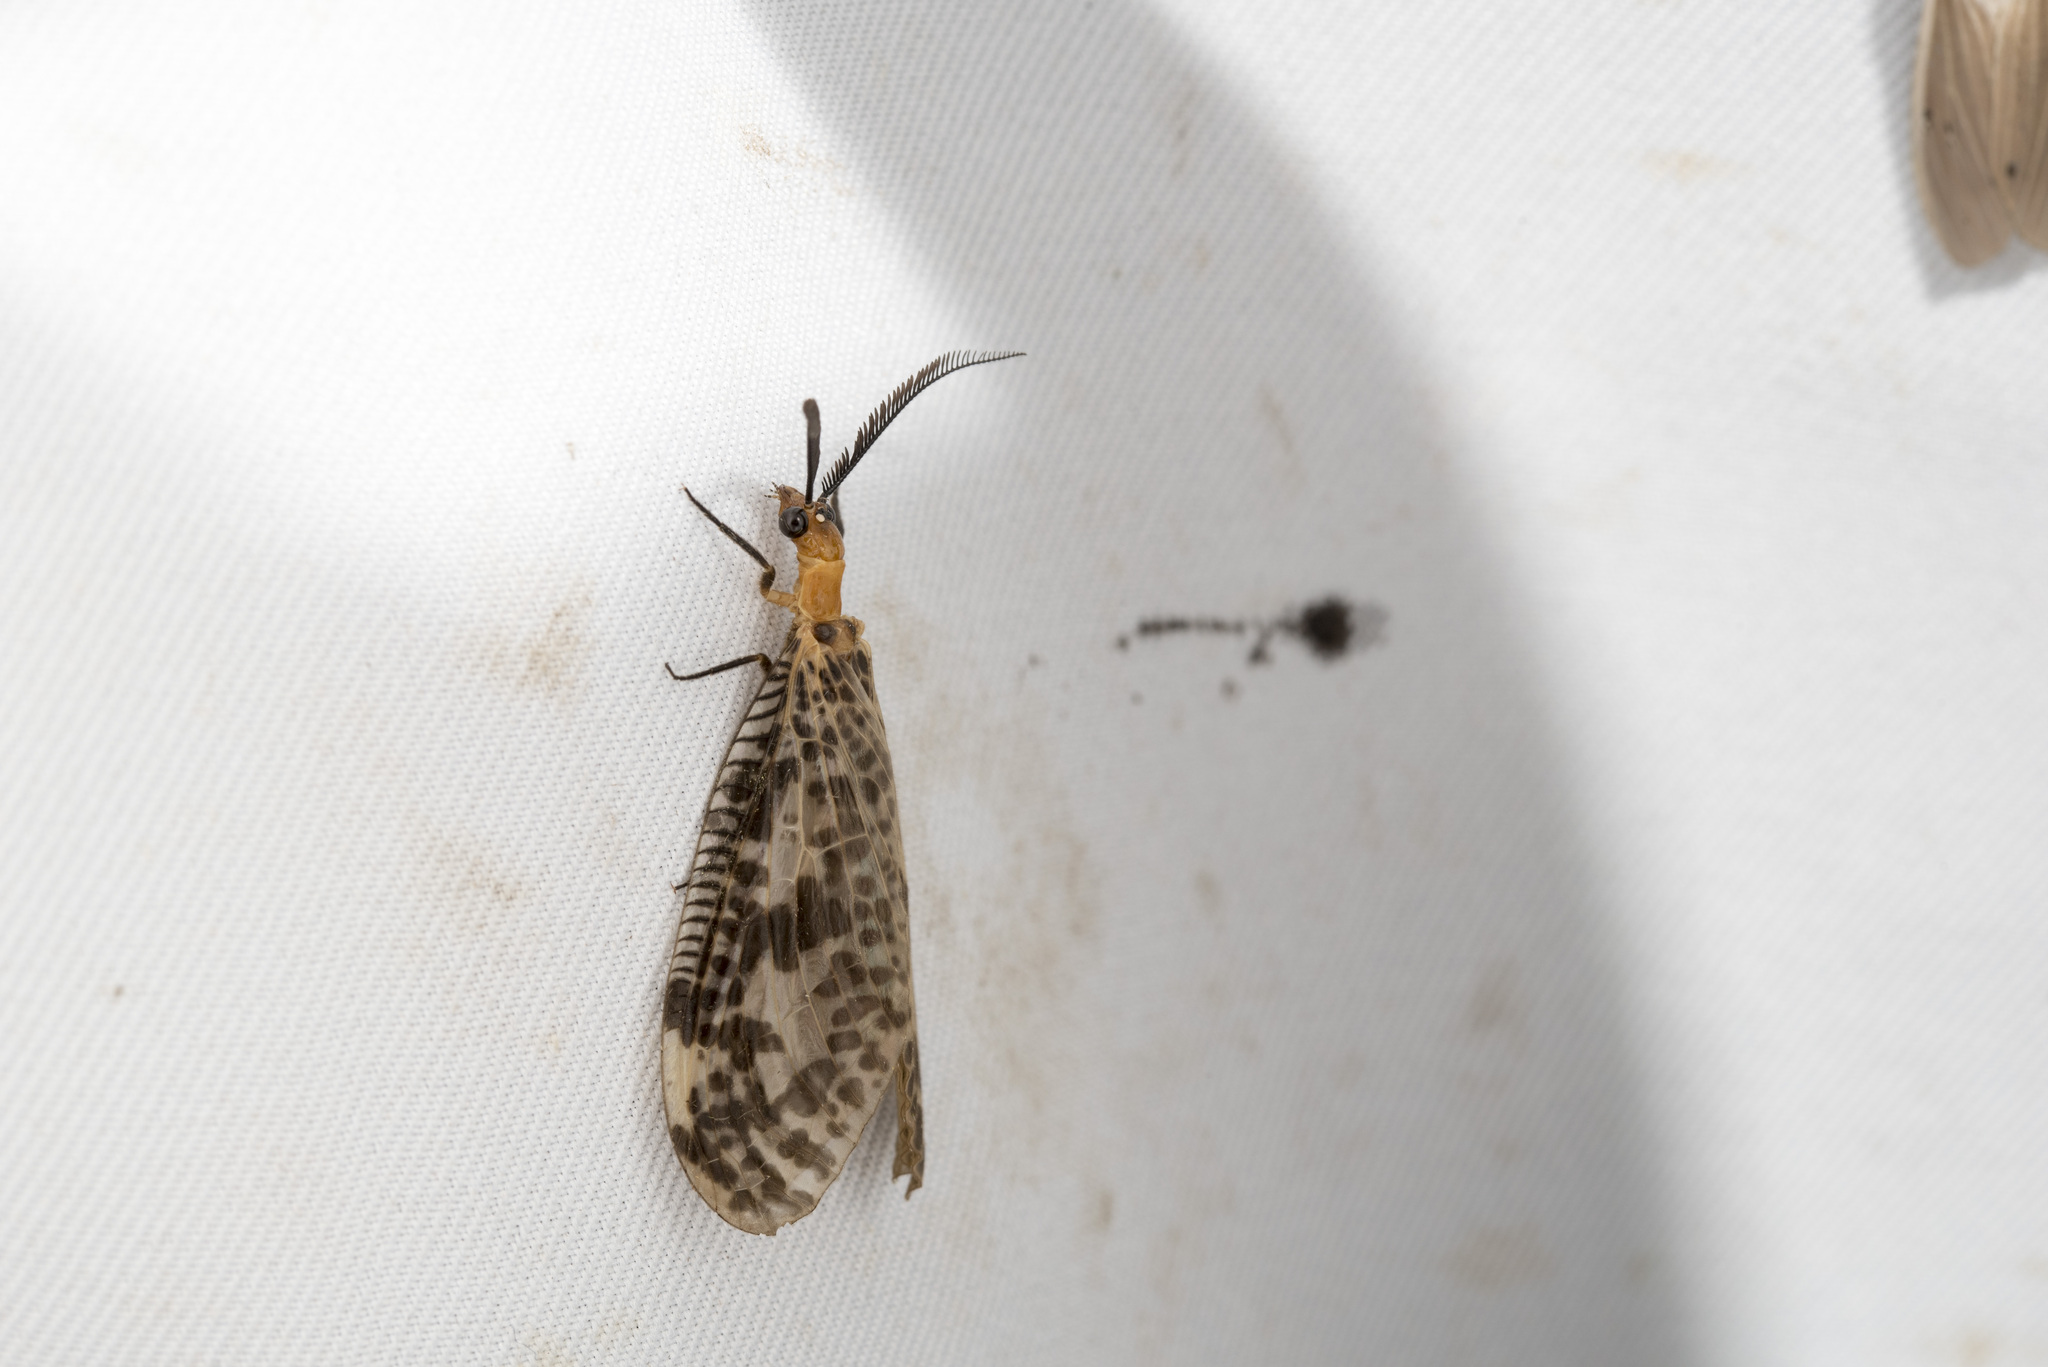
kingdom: Animalia
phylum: Arthropoda
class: Insecta
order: Megaloptera
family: Corydalidae
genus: Neochauliodes
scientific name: Neochauliodes formosanus
